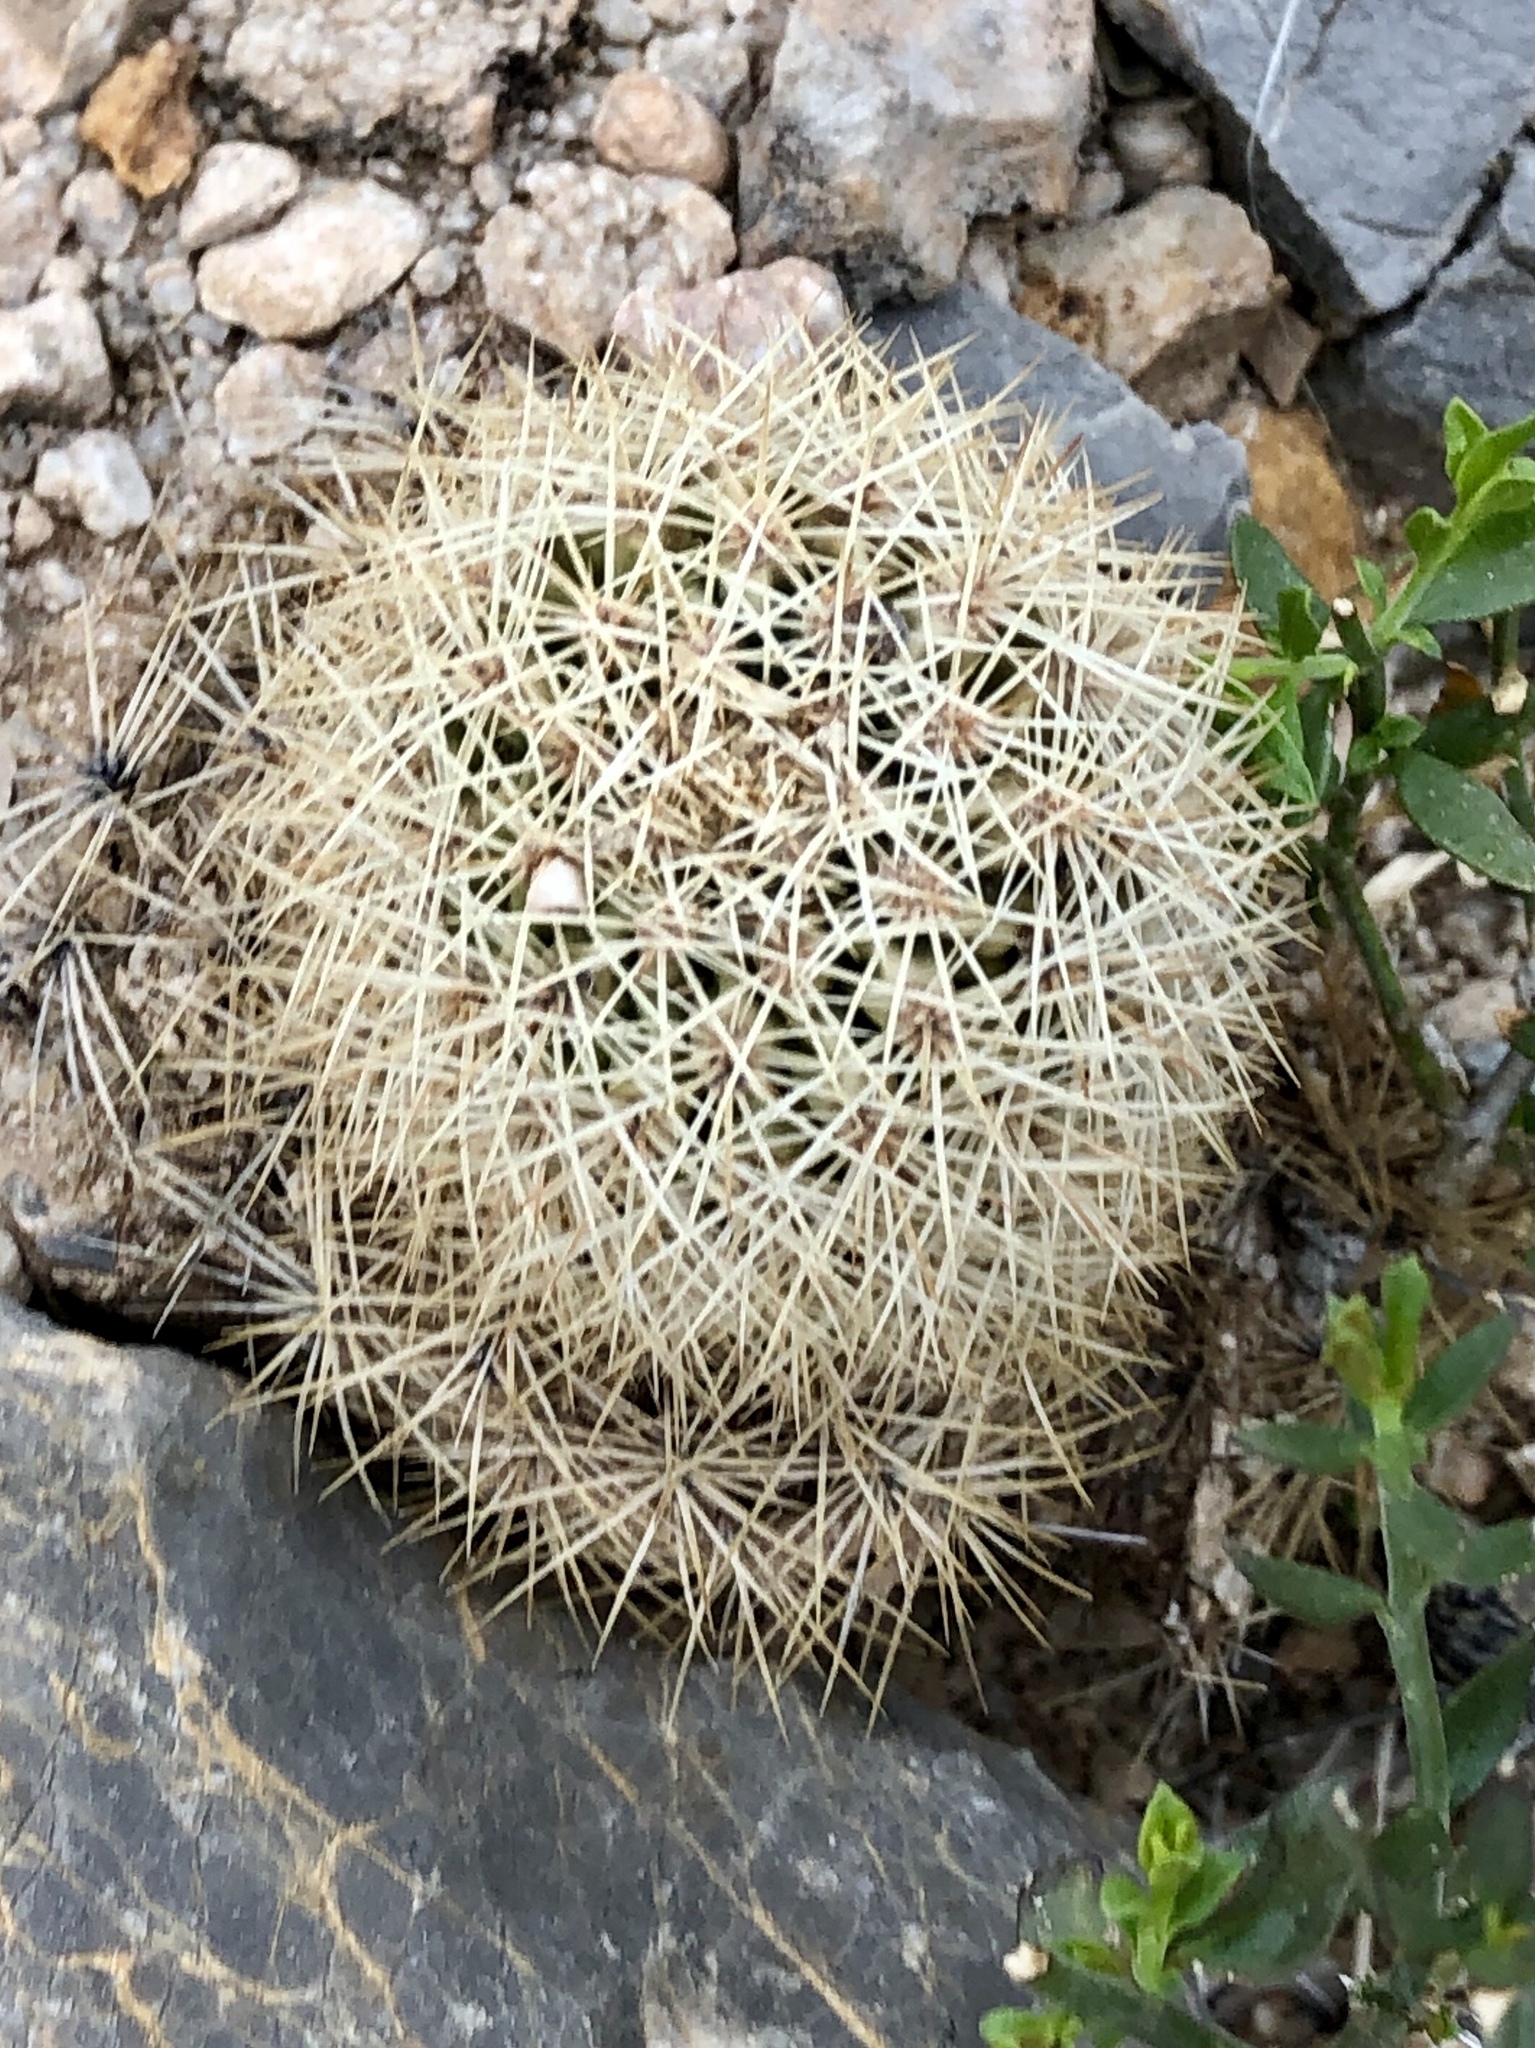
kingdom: Plantae
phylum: Tracheophyta
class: Magnoliopsida
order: Caryophyllales
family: Cactaceae
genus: Echinocereus
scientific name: Echinocereus dasyacanthus
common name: Spiny hedgehog cactus
